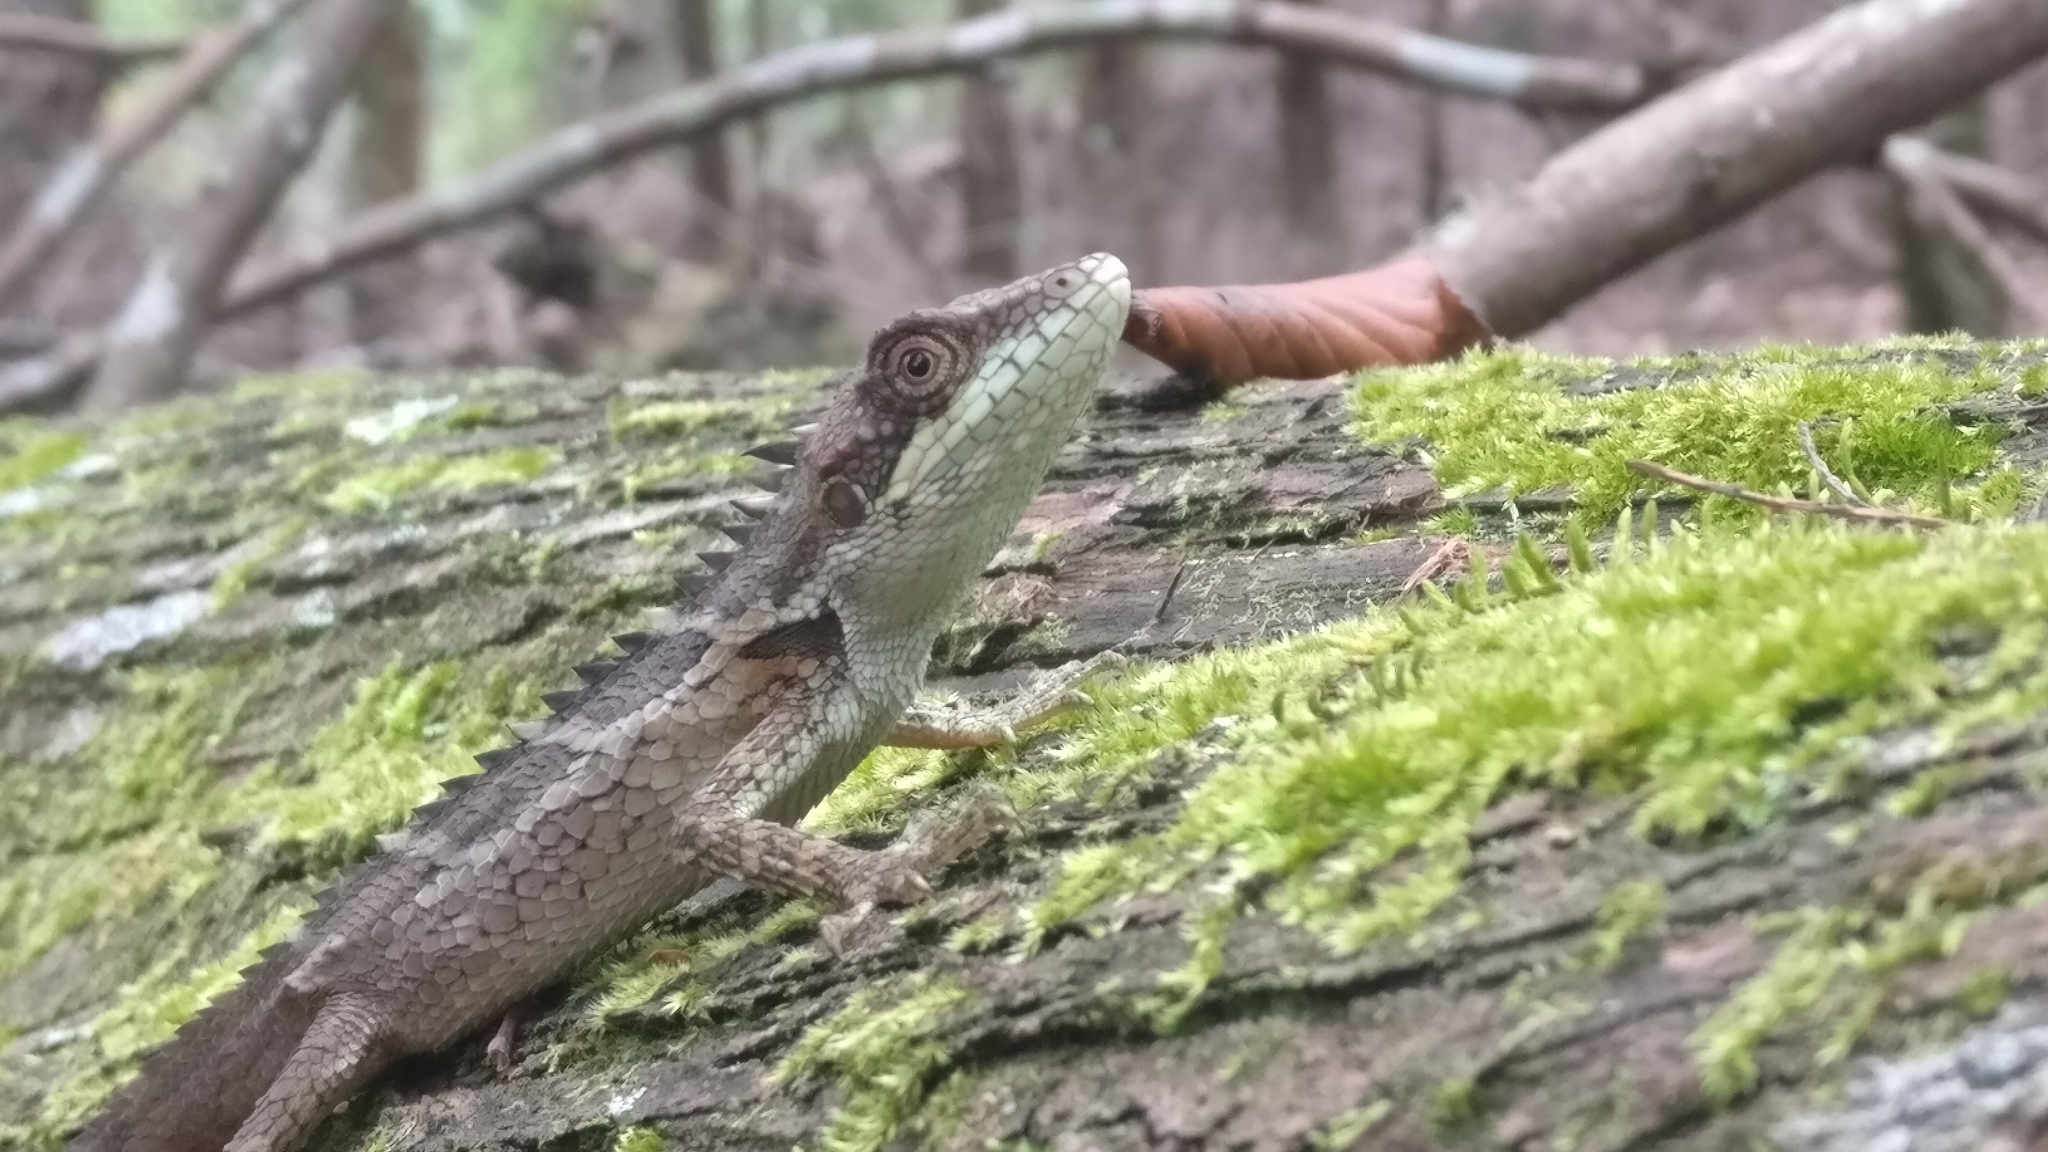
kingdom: Animalia
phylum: Chordata
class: Squamata
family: Agamidae
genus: Salea
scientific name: Salea anamallayana
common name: Anaimalai spiny lizard
